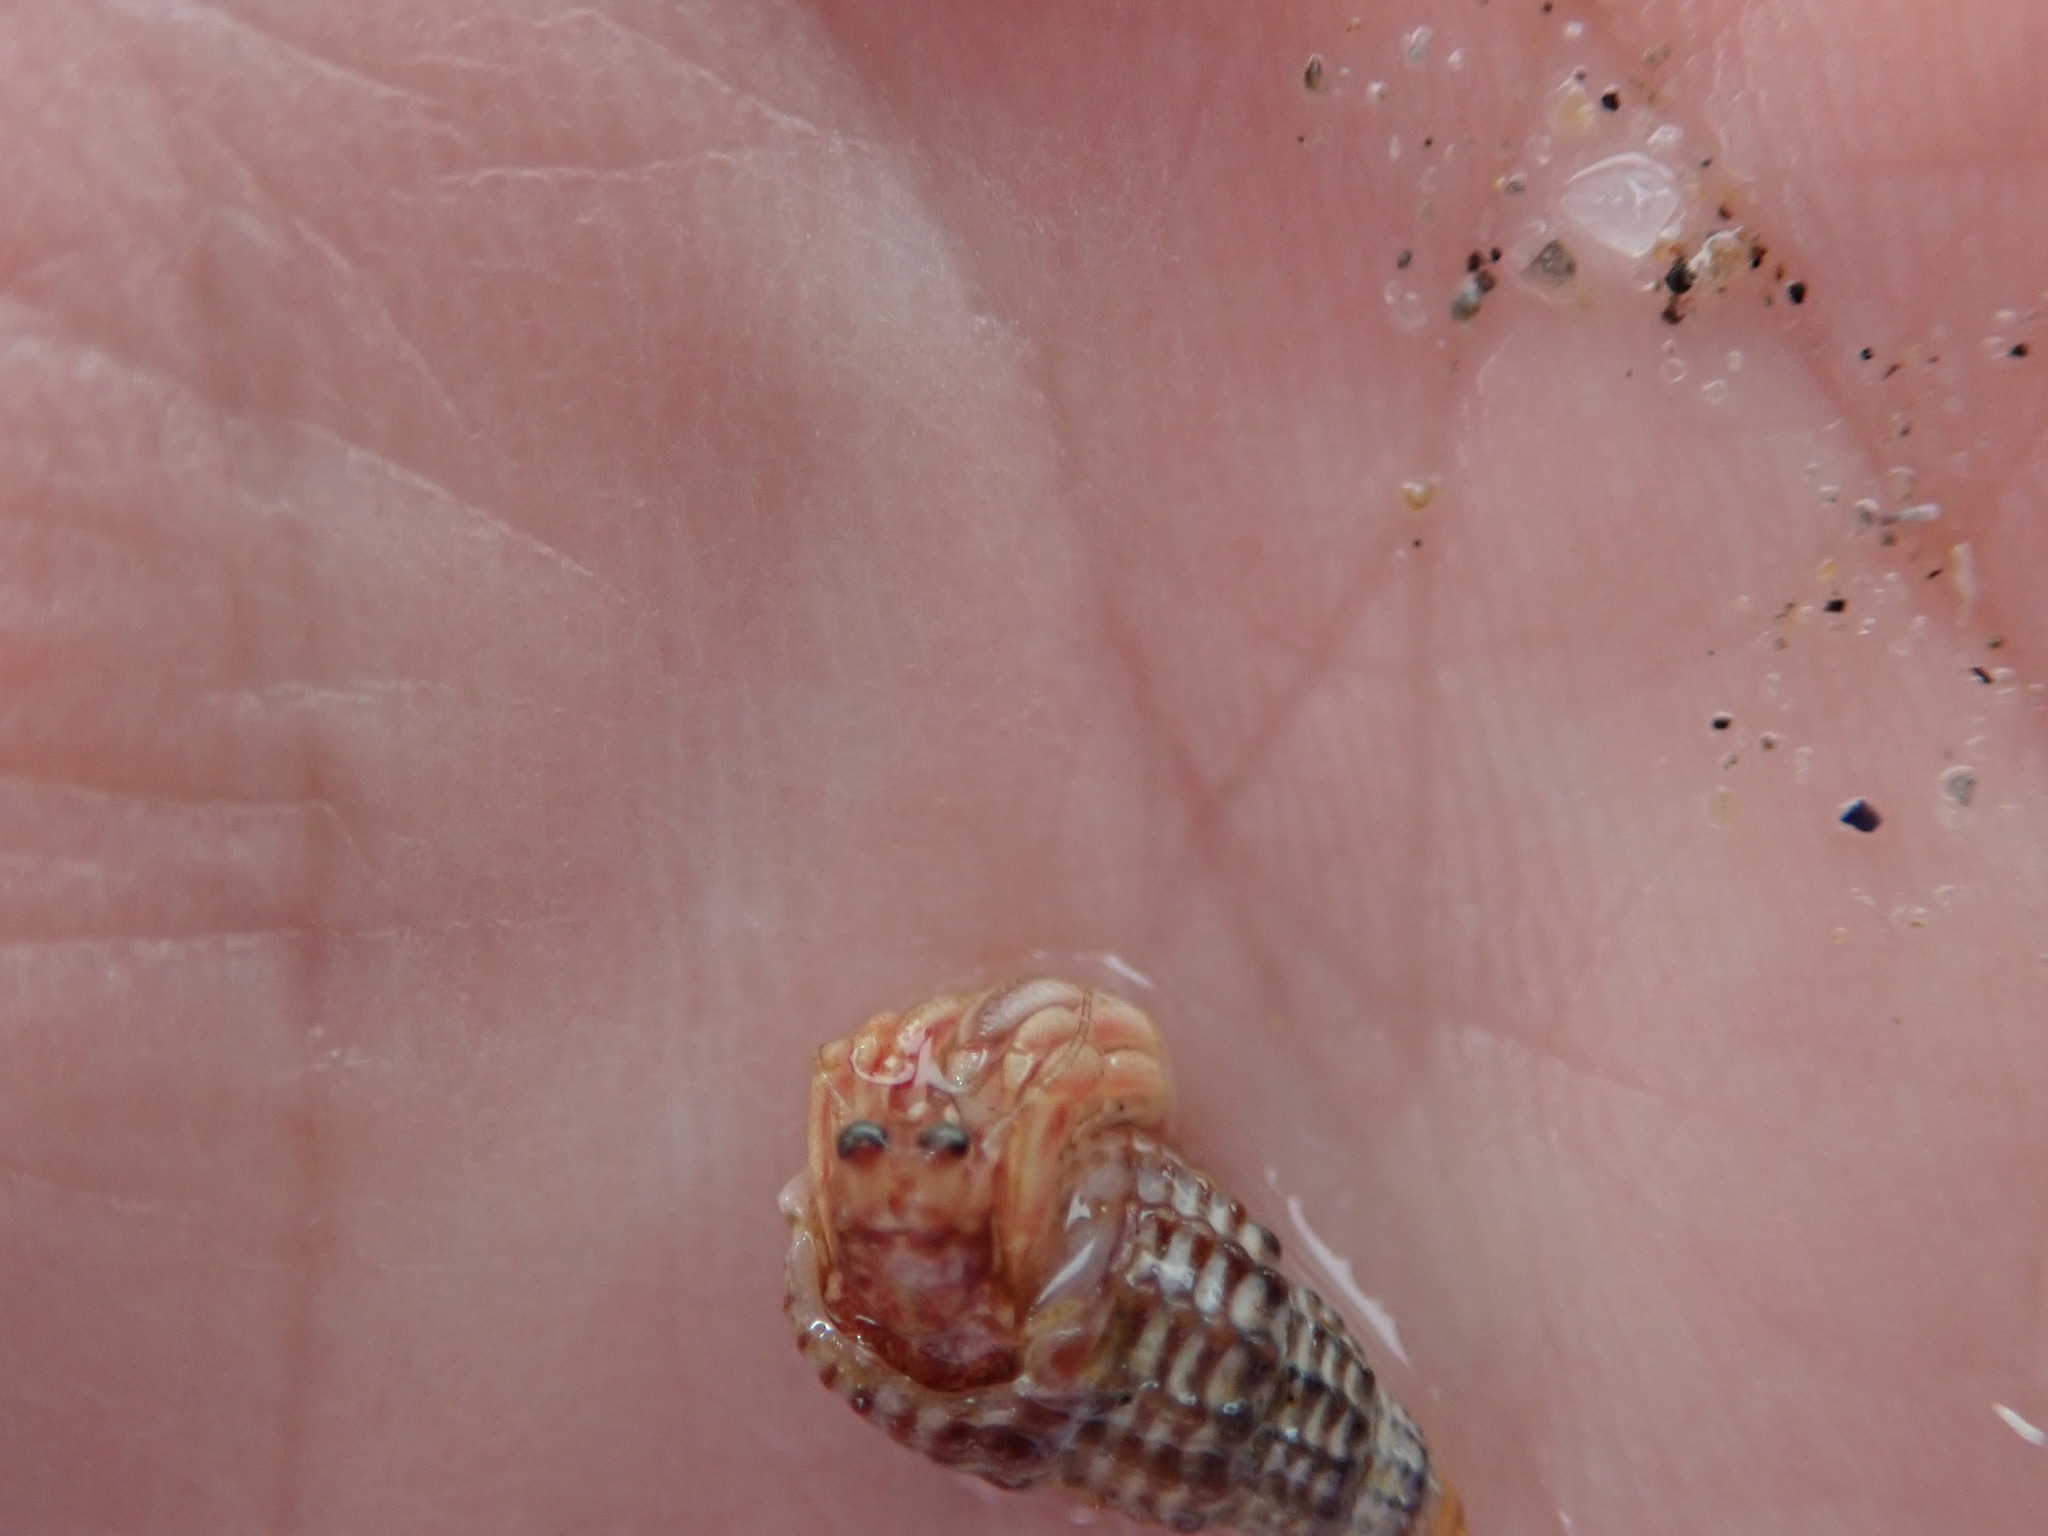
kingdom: Animalia
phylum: Arthropoda
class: Malacostraca
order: Decapoda
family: Paguridae
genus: Pagurus
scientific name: Pagurus longicarpus
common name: Long-armed hermit crab
